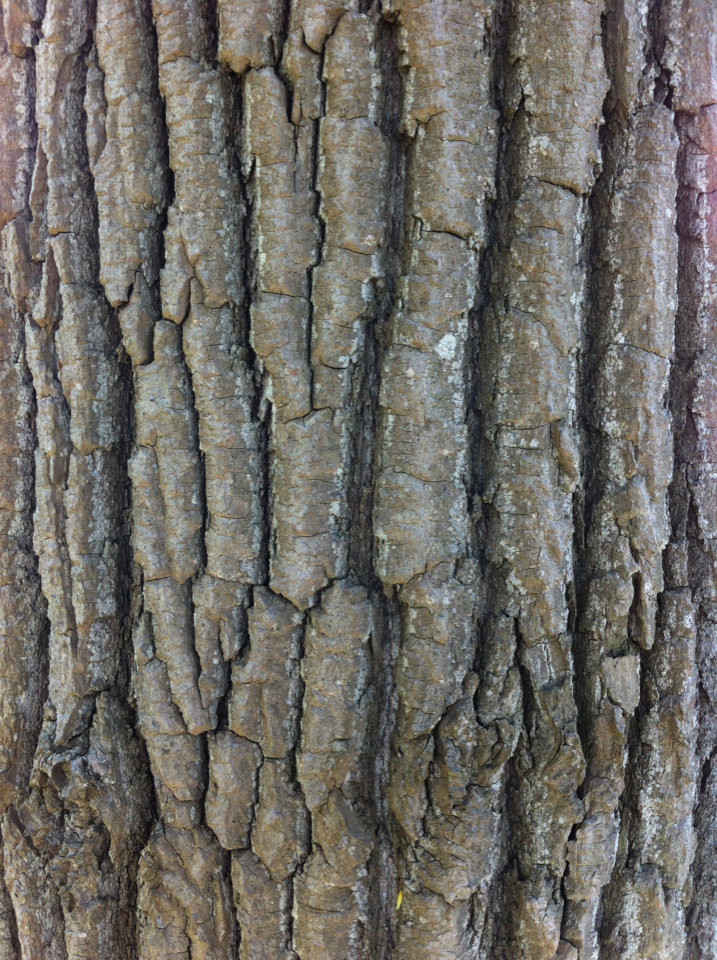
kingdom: Plantae
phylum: Tracheophyta
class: Magnoliopsida
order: Malpighiales
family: Salicaceae
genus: Populus
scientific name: Populus deltoides
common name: Eastern cottonwood
